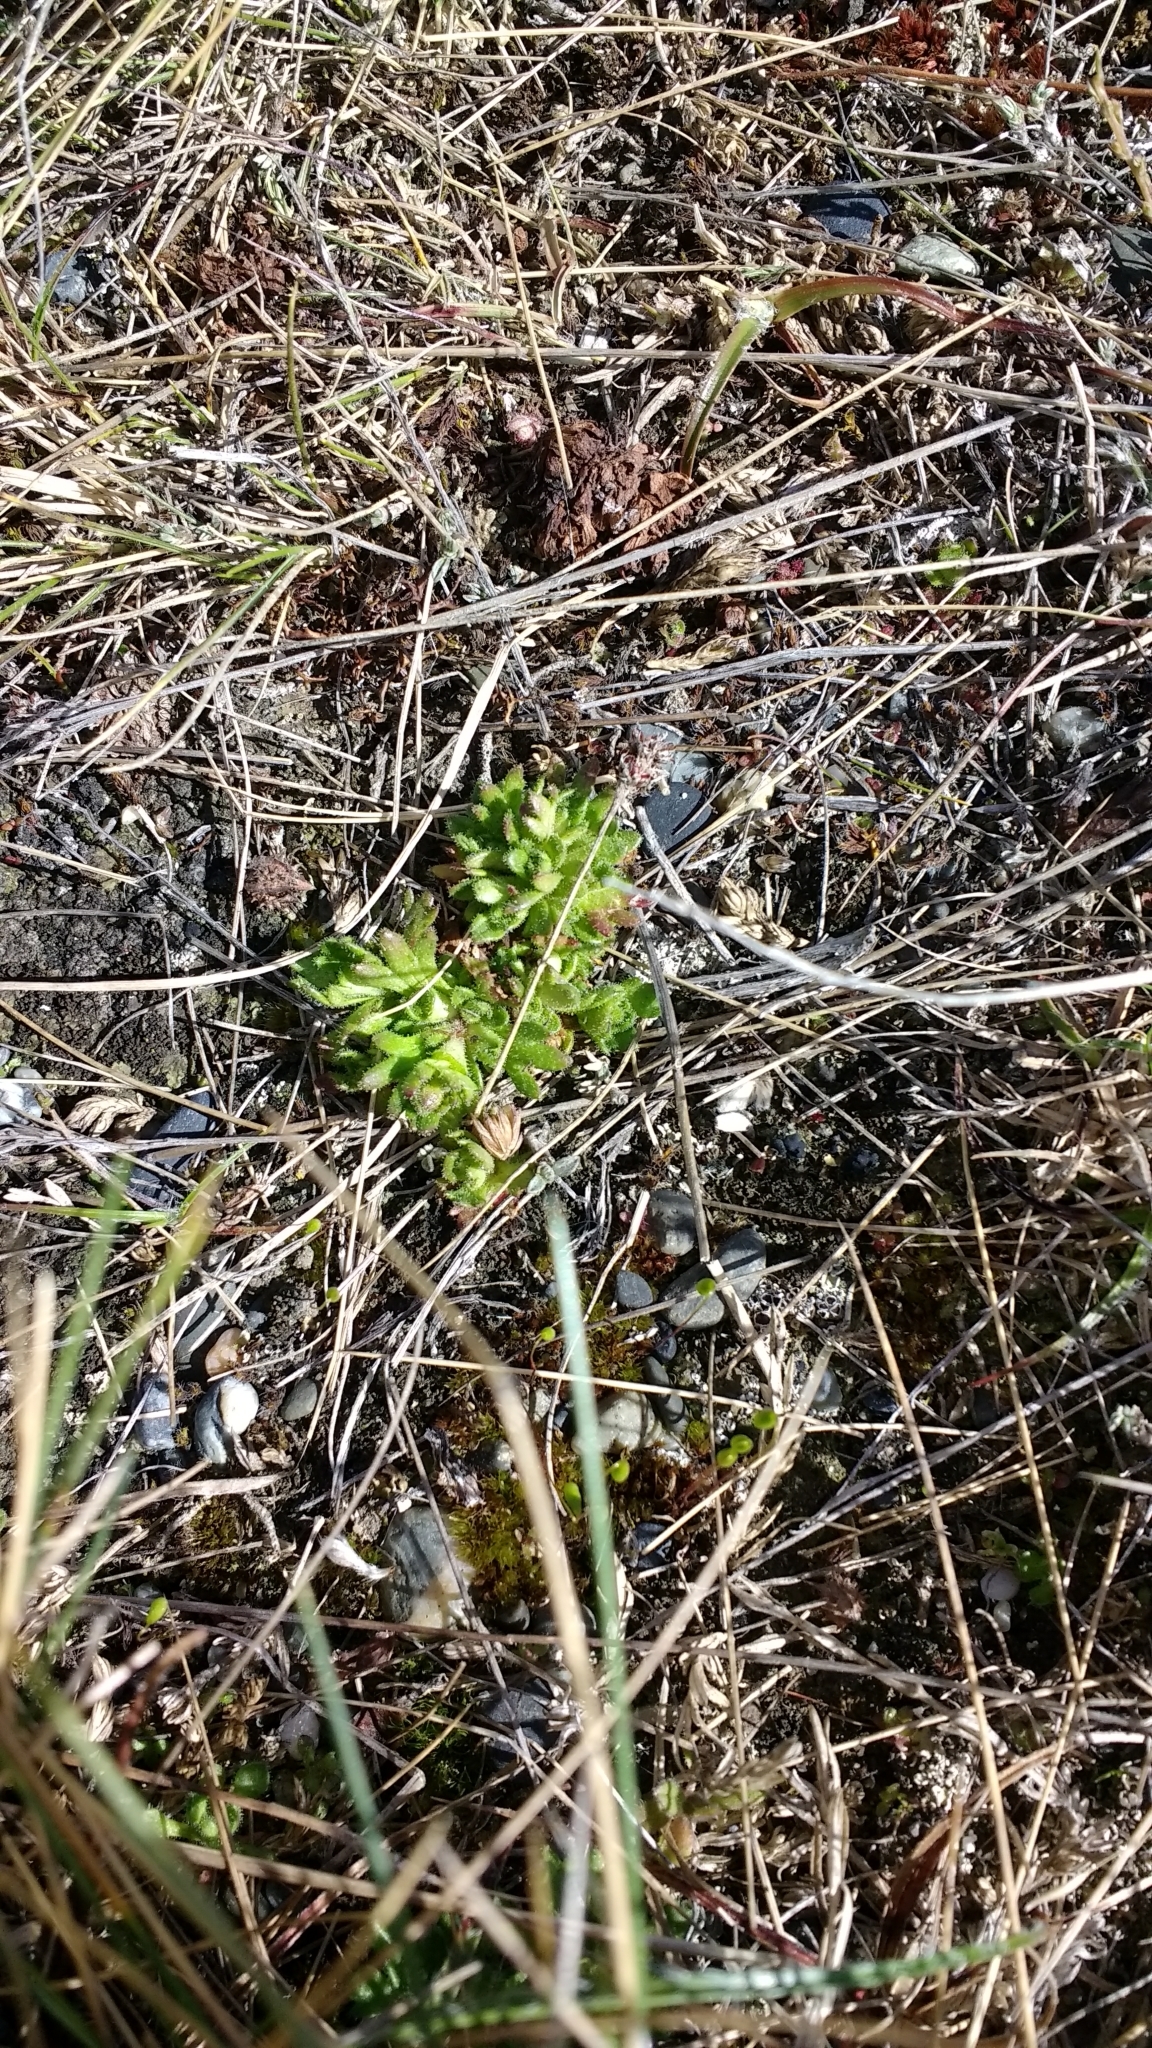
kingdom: Plantae
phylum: Tracheophyta
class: Magnoliopsida
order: Saxifragales
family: Saxifragaceae
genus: Saxifraga
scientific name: Saxifraga magellanica
